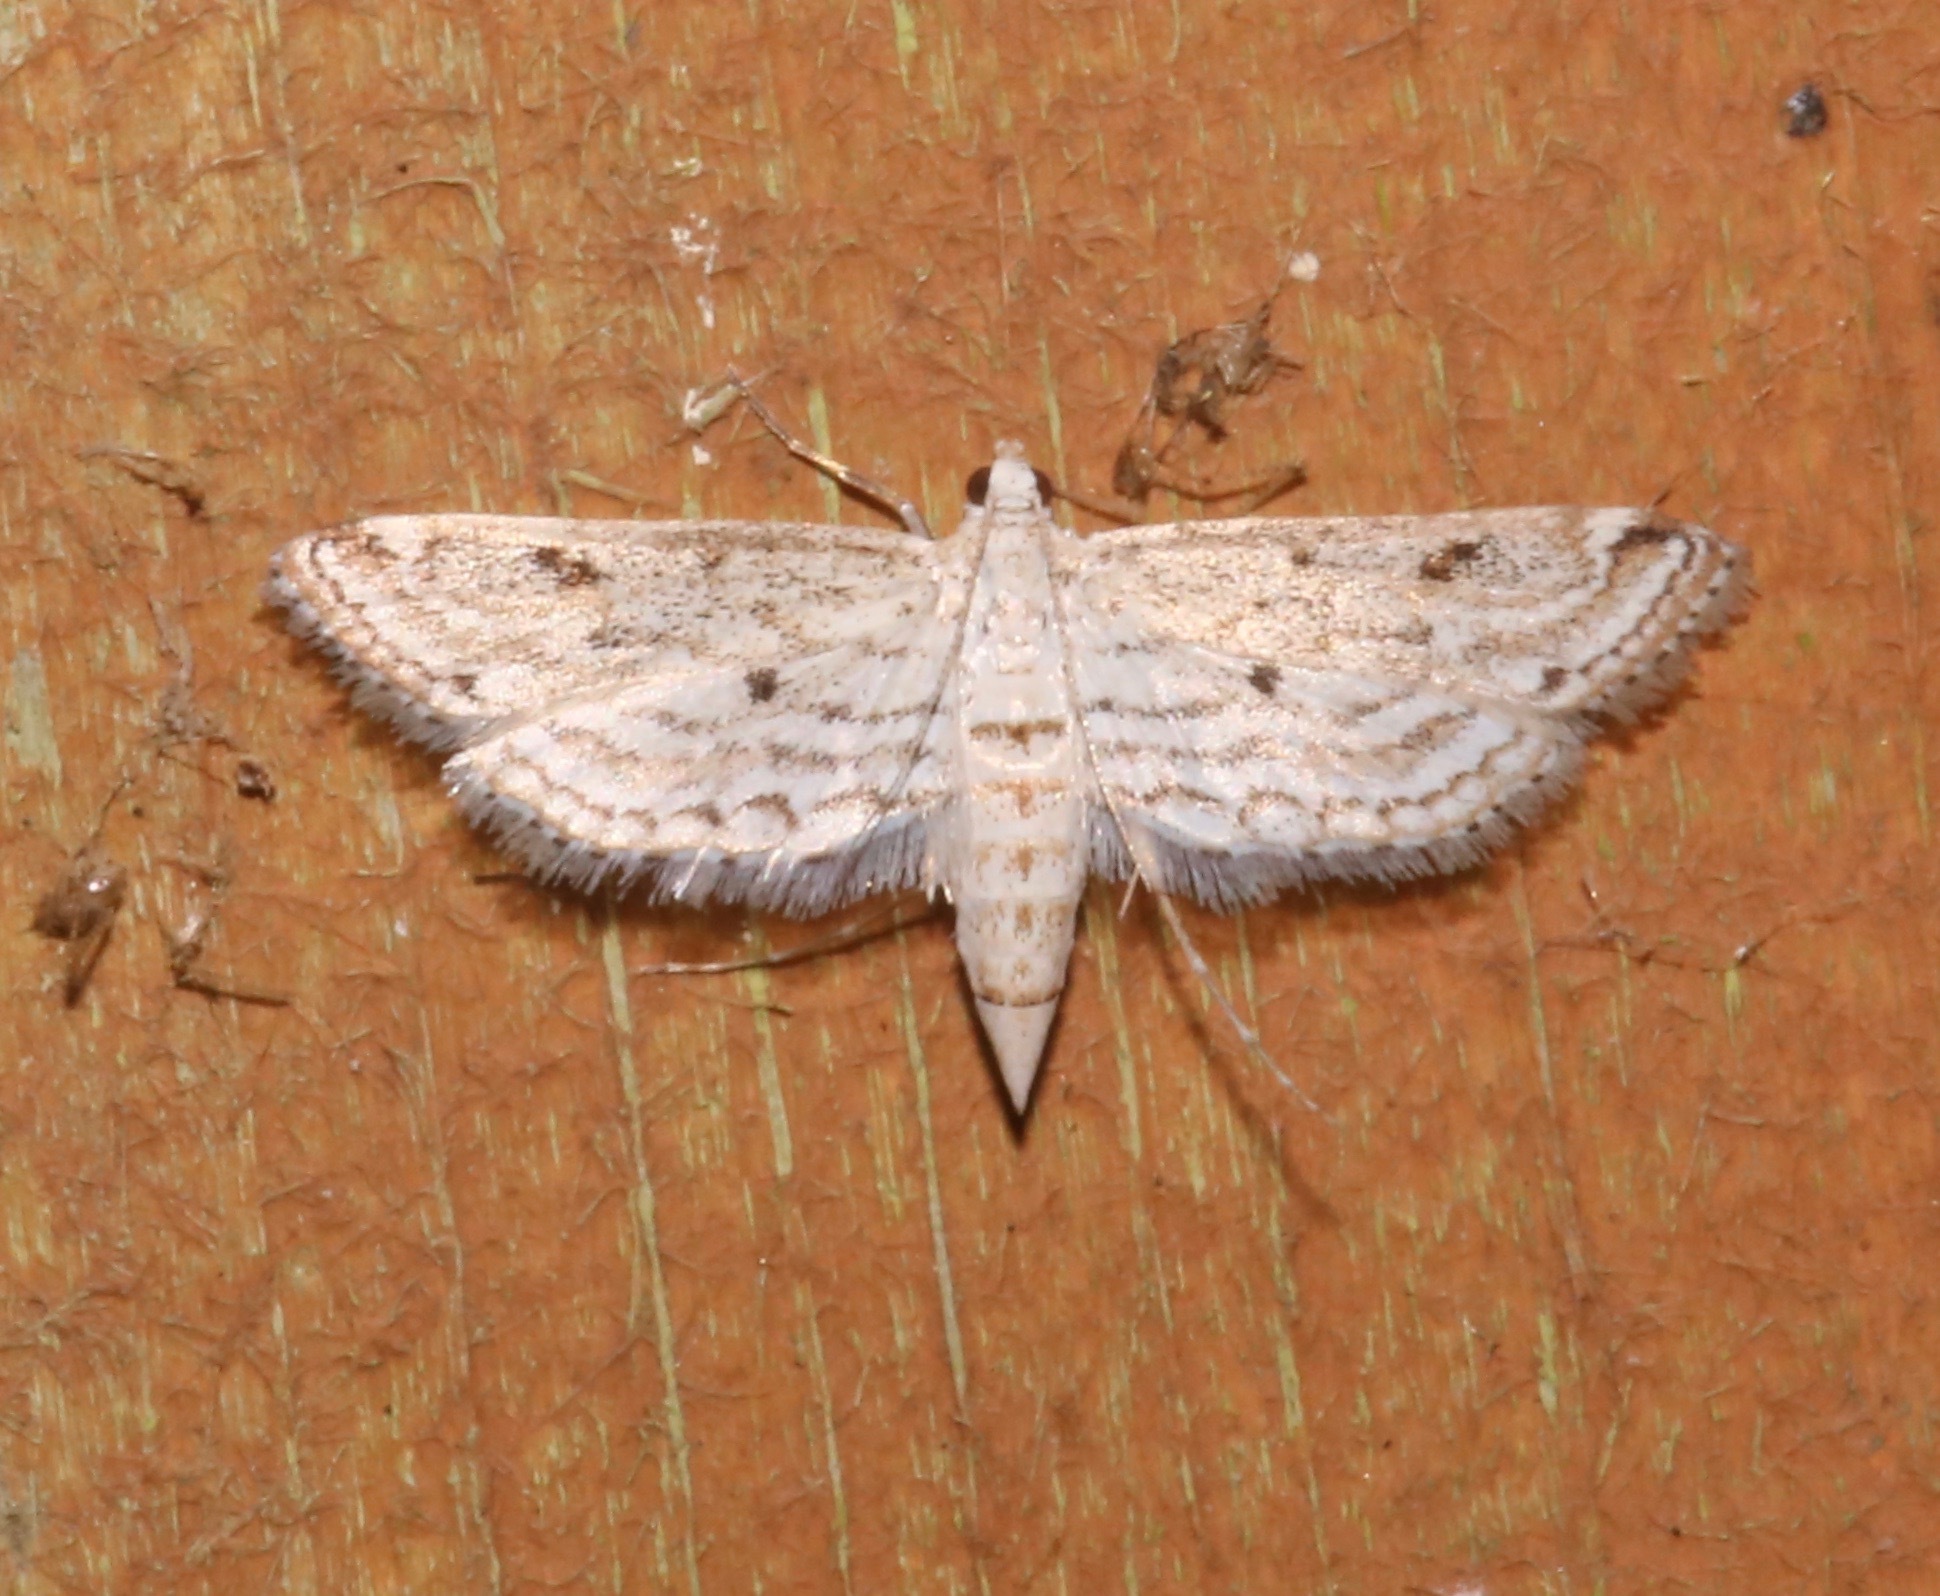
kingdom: Animalia
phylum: Arthropoda
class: Insecta
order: Lepidoptera
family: Crambidae
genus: Parapoynx
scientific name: Parapoynx allionealis
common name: Bladderwort casemaker
